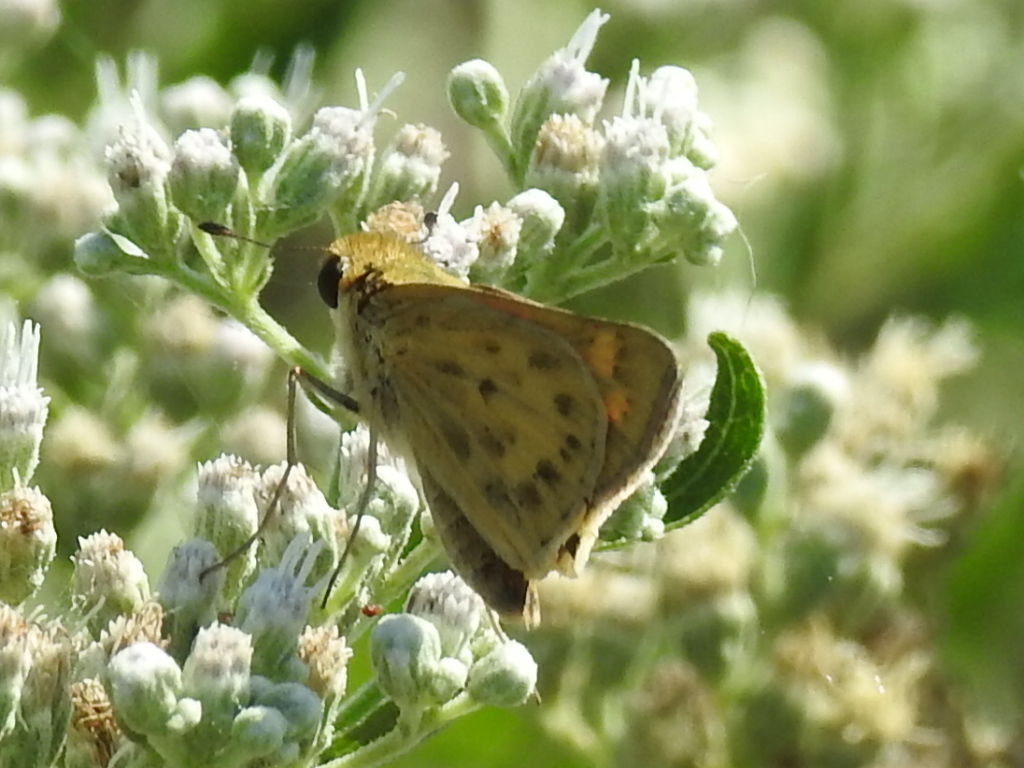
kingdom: Animalia
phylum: Arthropoda
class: Insecta
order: Lepidoptera
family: Hesperiidae
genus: Hylephila
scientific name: Hylephila phyleus
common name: Fiery skipper
